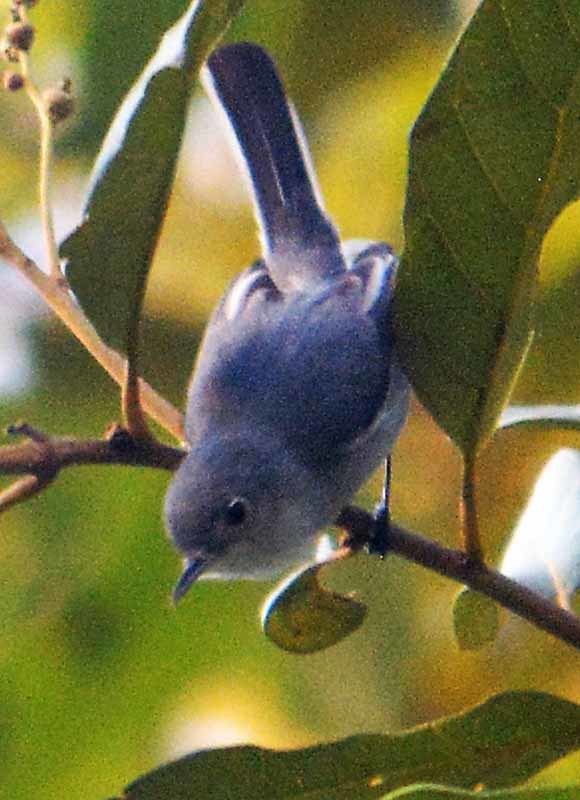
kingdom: Animalia
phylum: Chordata
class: Aves
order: Passeriformes
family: Polioptilidae
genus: Polioptila
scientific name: Polioptila caerulea
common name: Blue-gray gnatcatcher
